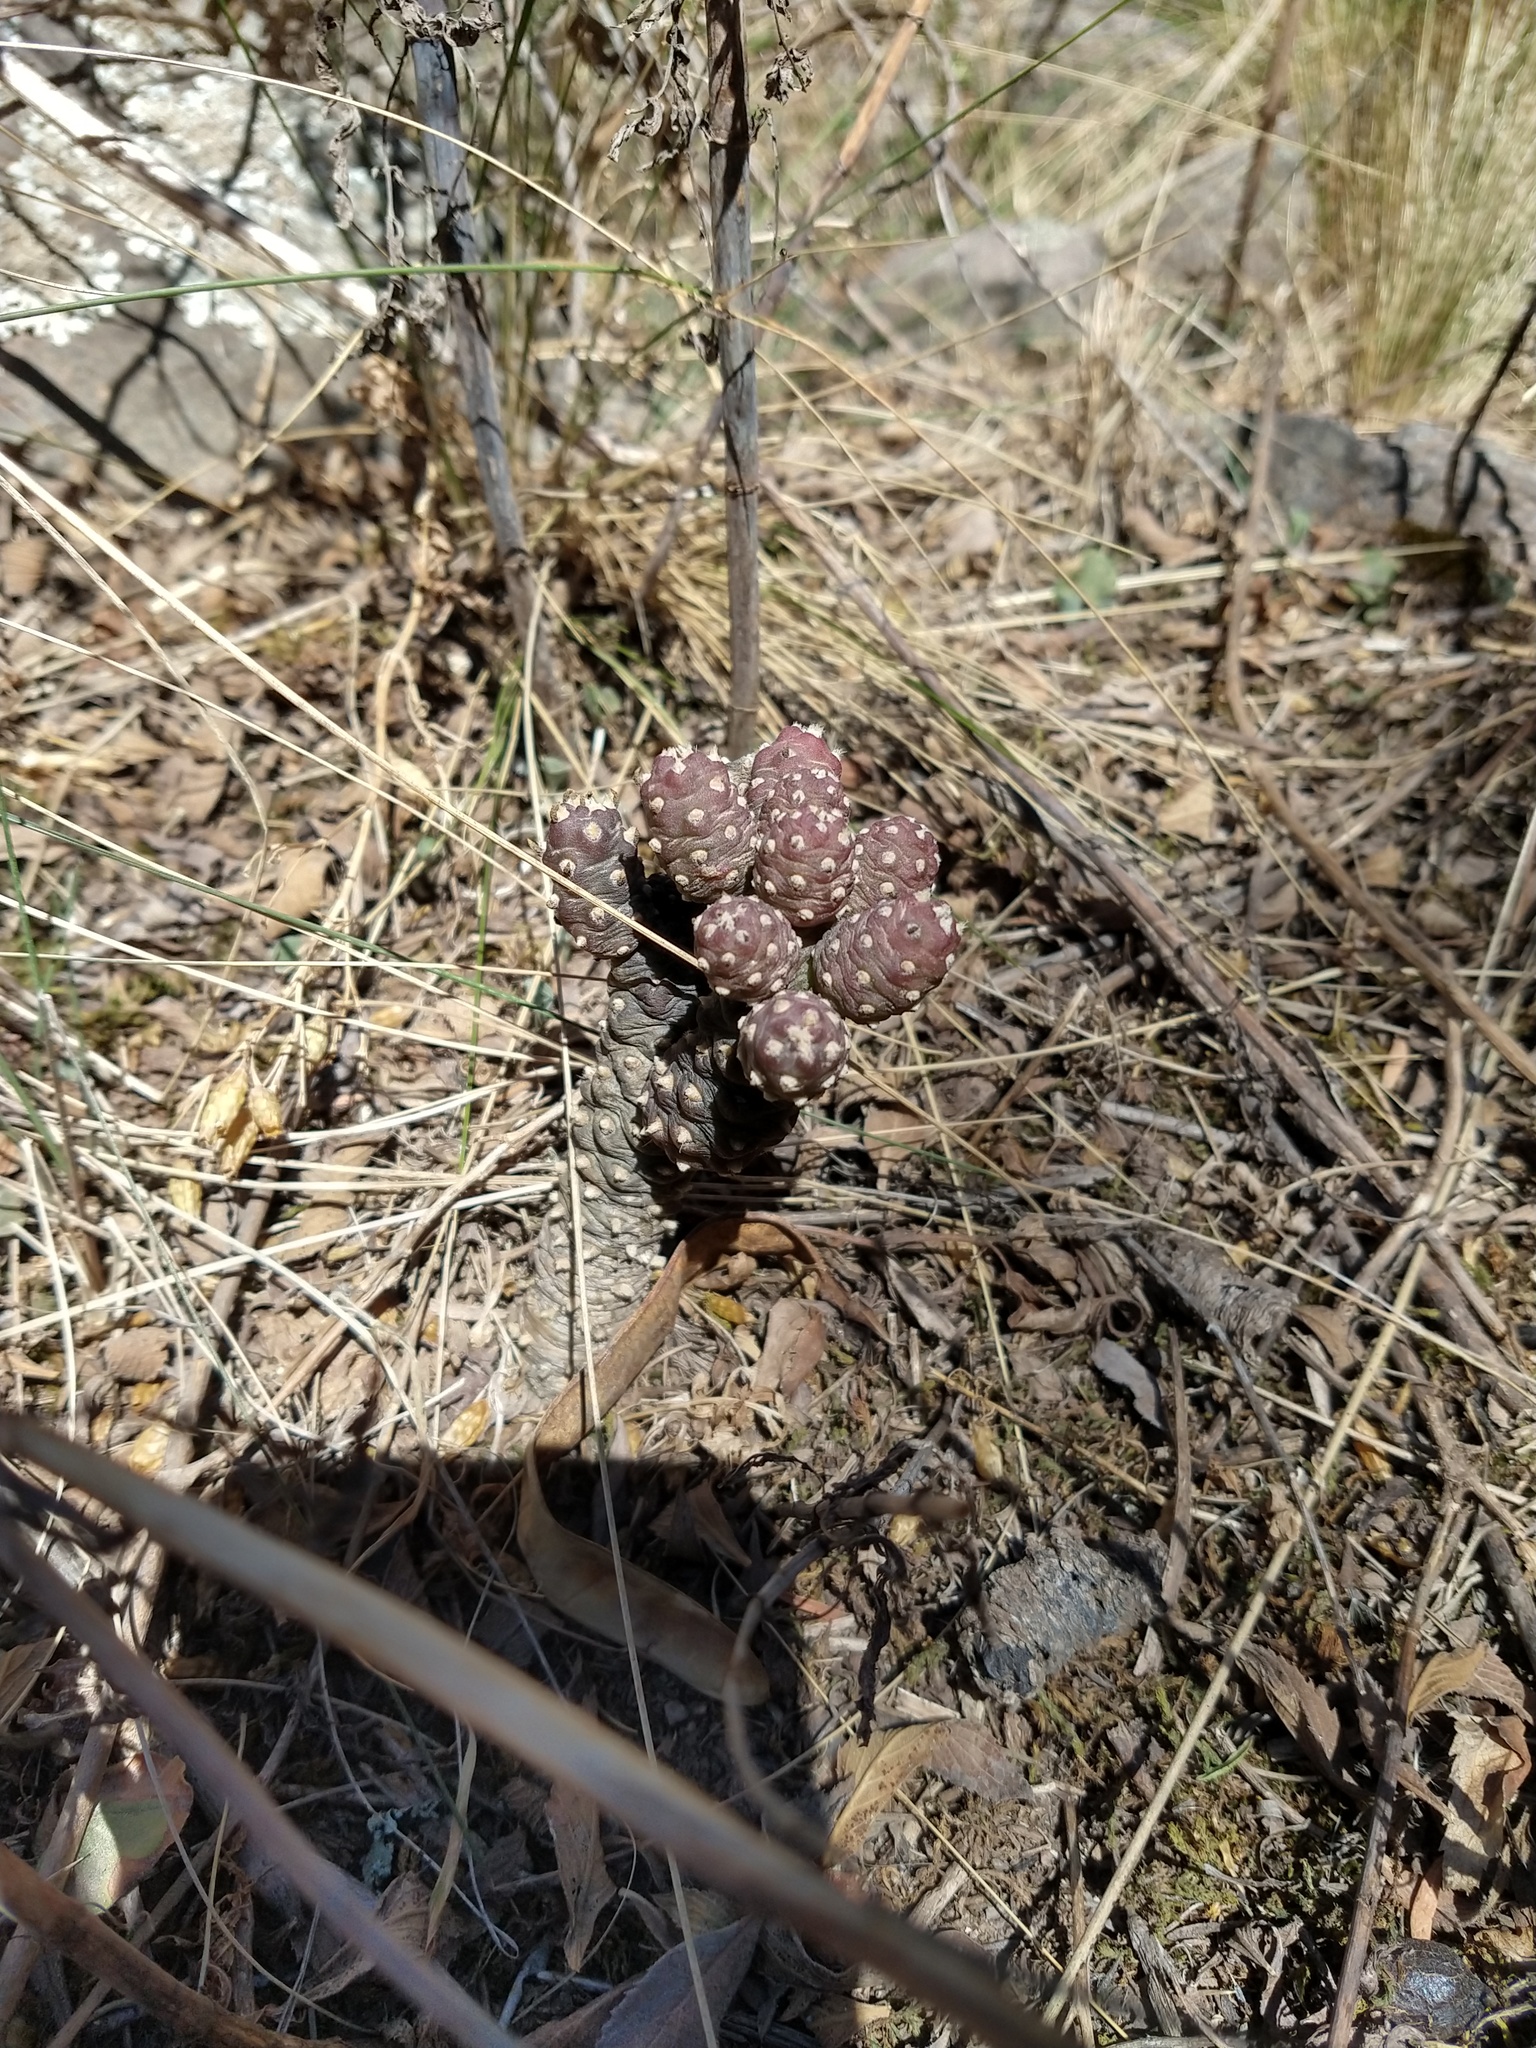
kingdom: Plantae
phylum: Tracheophyta
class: Magnoliopsida
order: Caryophyllales
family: Cactaceae
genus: Tephrocactus
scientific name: Tephrocactus verschaffeltii
